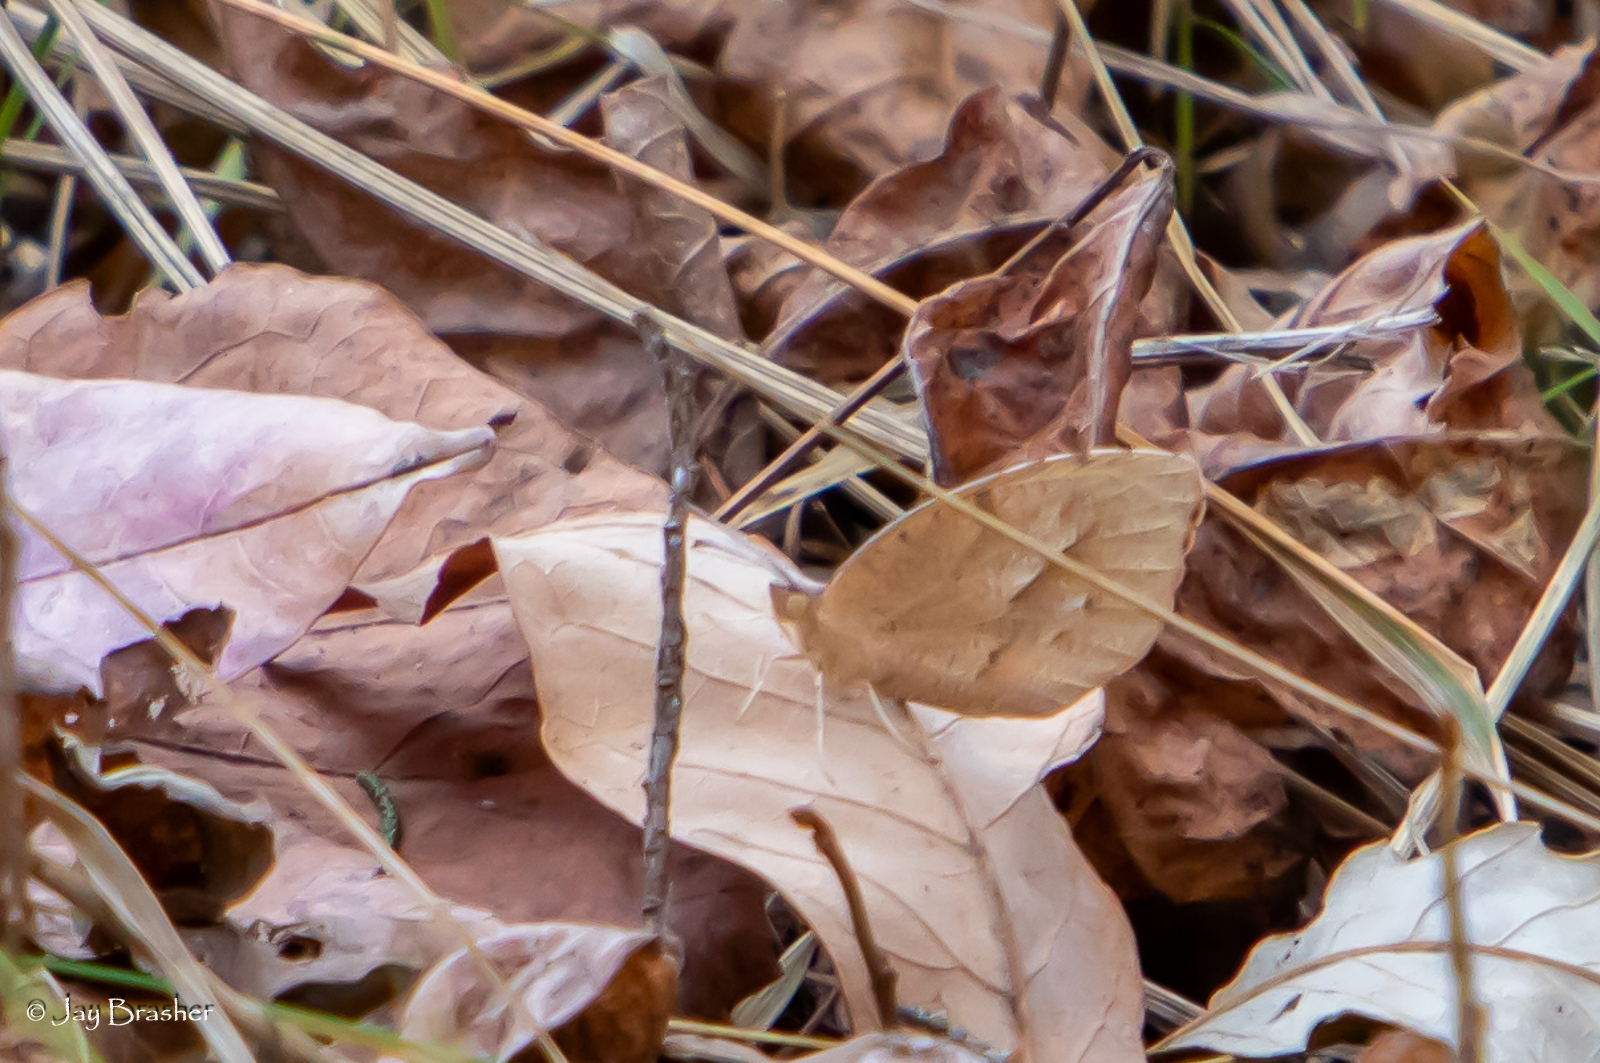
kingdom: Animalia
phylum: Arthropoda
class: Insecta
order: Lepidoptera
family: Pieridae
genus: Abaeis
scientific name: Abaeis nicippe
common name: Sleepy orange
